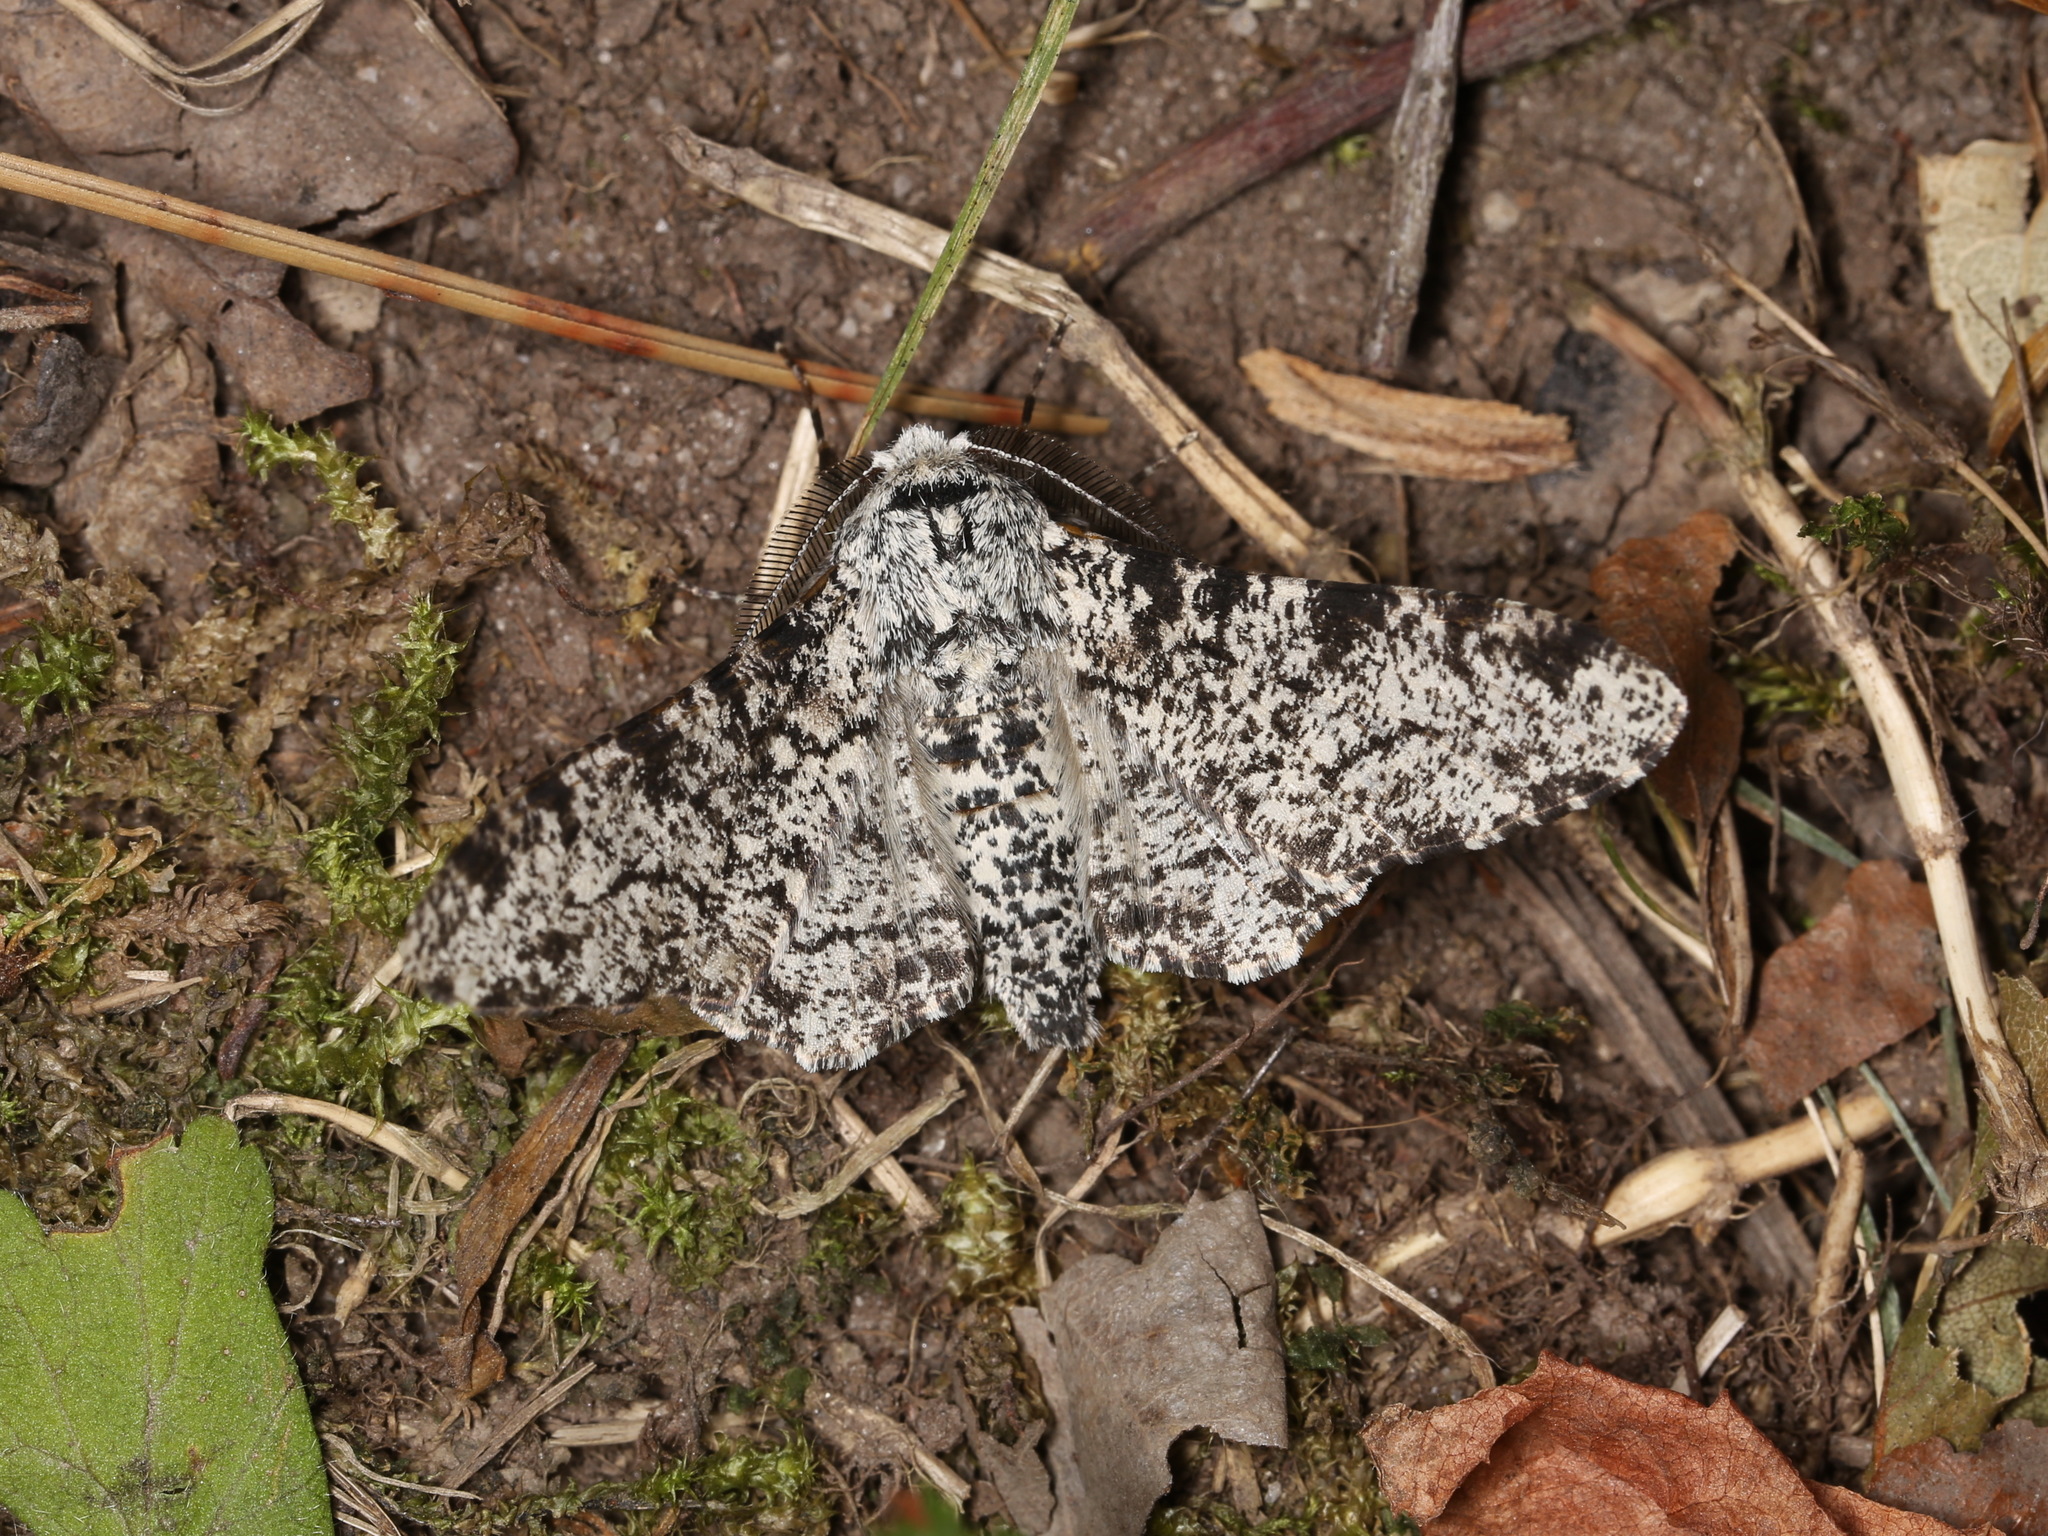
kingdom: Animalia
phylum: Arthropoda
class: Insecta
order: Lepidoptera
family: Geometridae
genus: Biston
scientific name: Biston betularia
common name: Peppered moth
